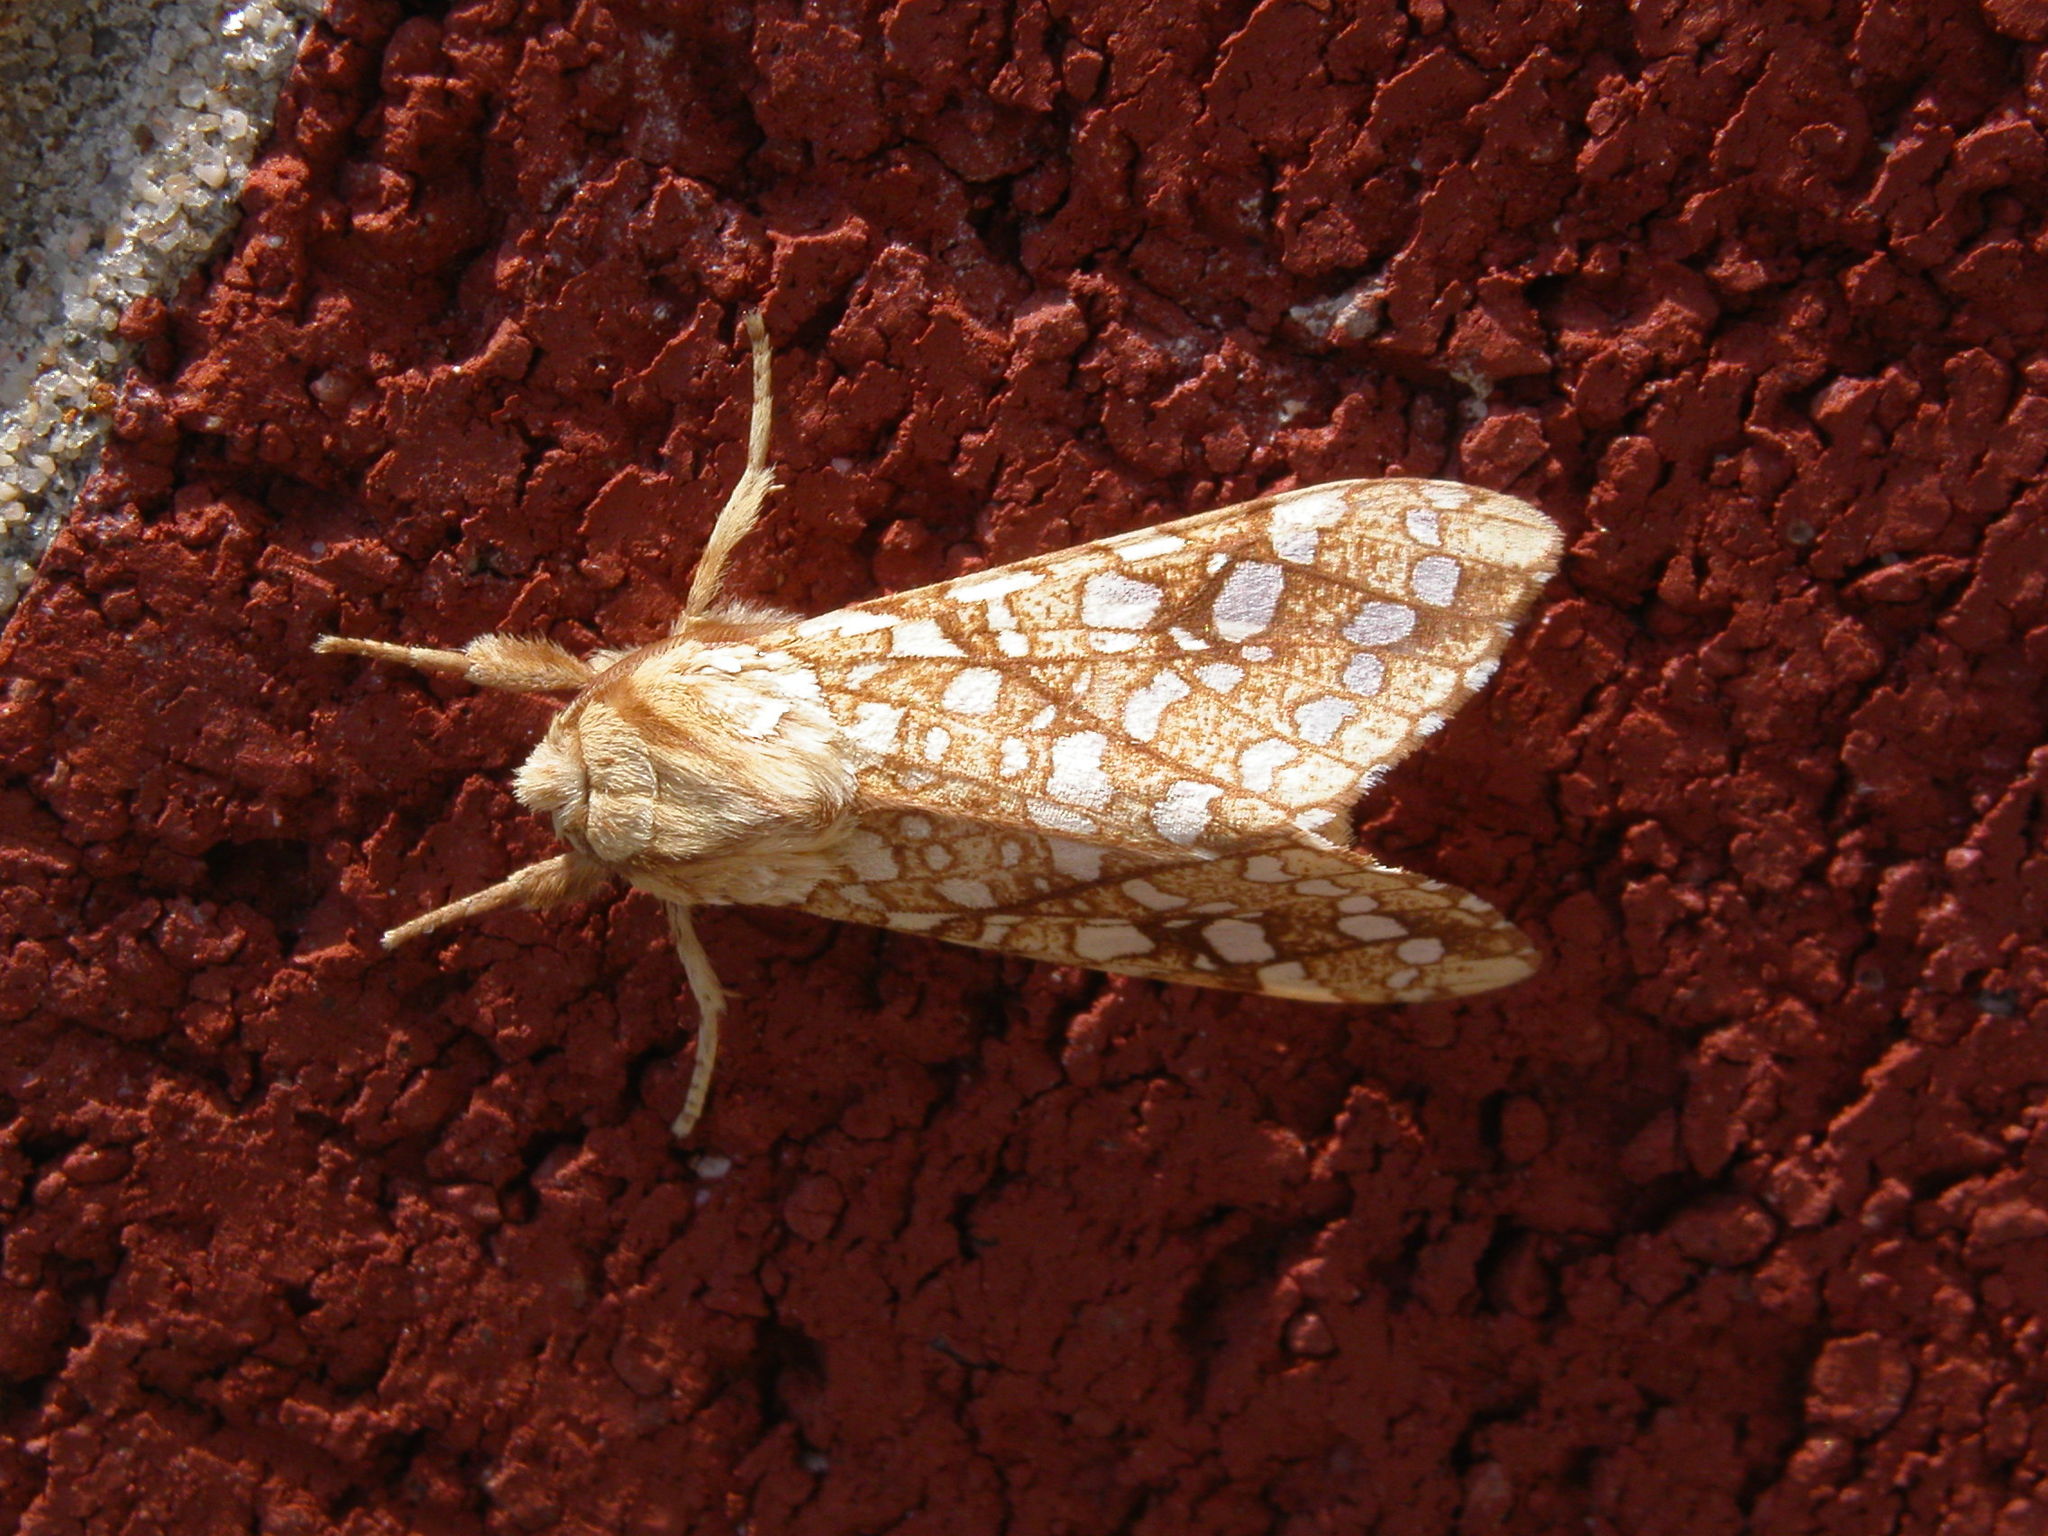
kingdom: Animalia
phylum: Arthropoda
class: Insecta
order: Lepidoptera
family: Erebidae
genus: Lophocampa
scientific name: Lophocampa caryae
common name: Hickory tussock moth
